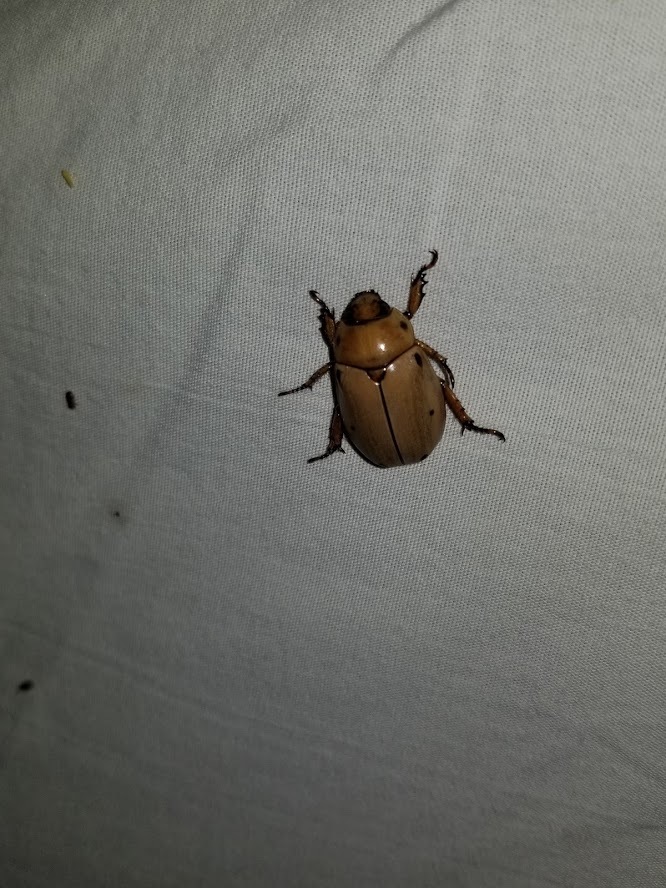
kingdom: Animalia
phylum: Arthropoda
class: Insecta
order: Coleoptera
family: Scarabaeidae
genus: Pelidnota
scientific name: Pelidnota punctata
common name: Grapevine beetle
